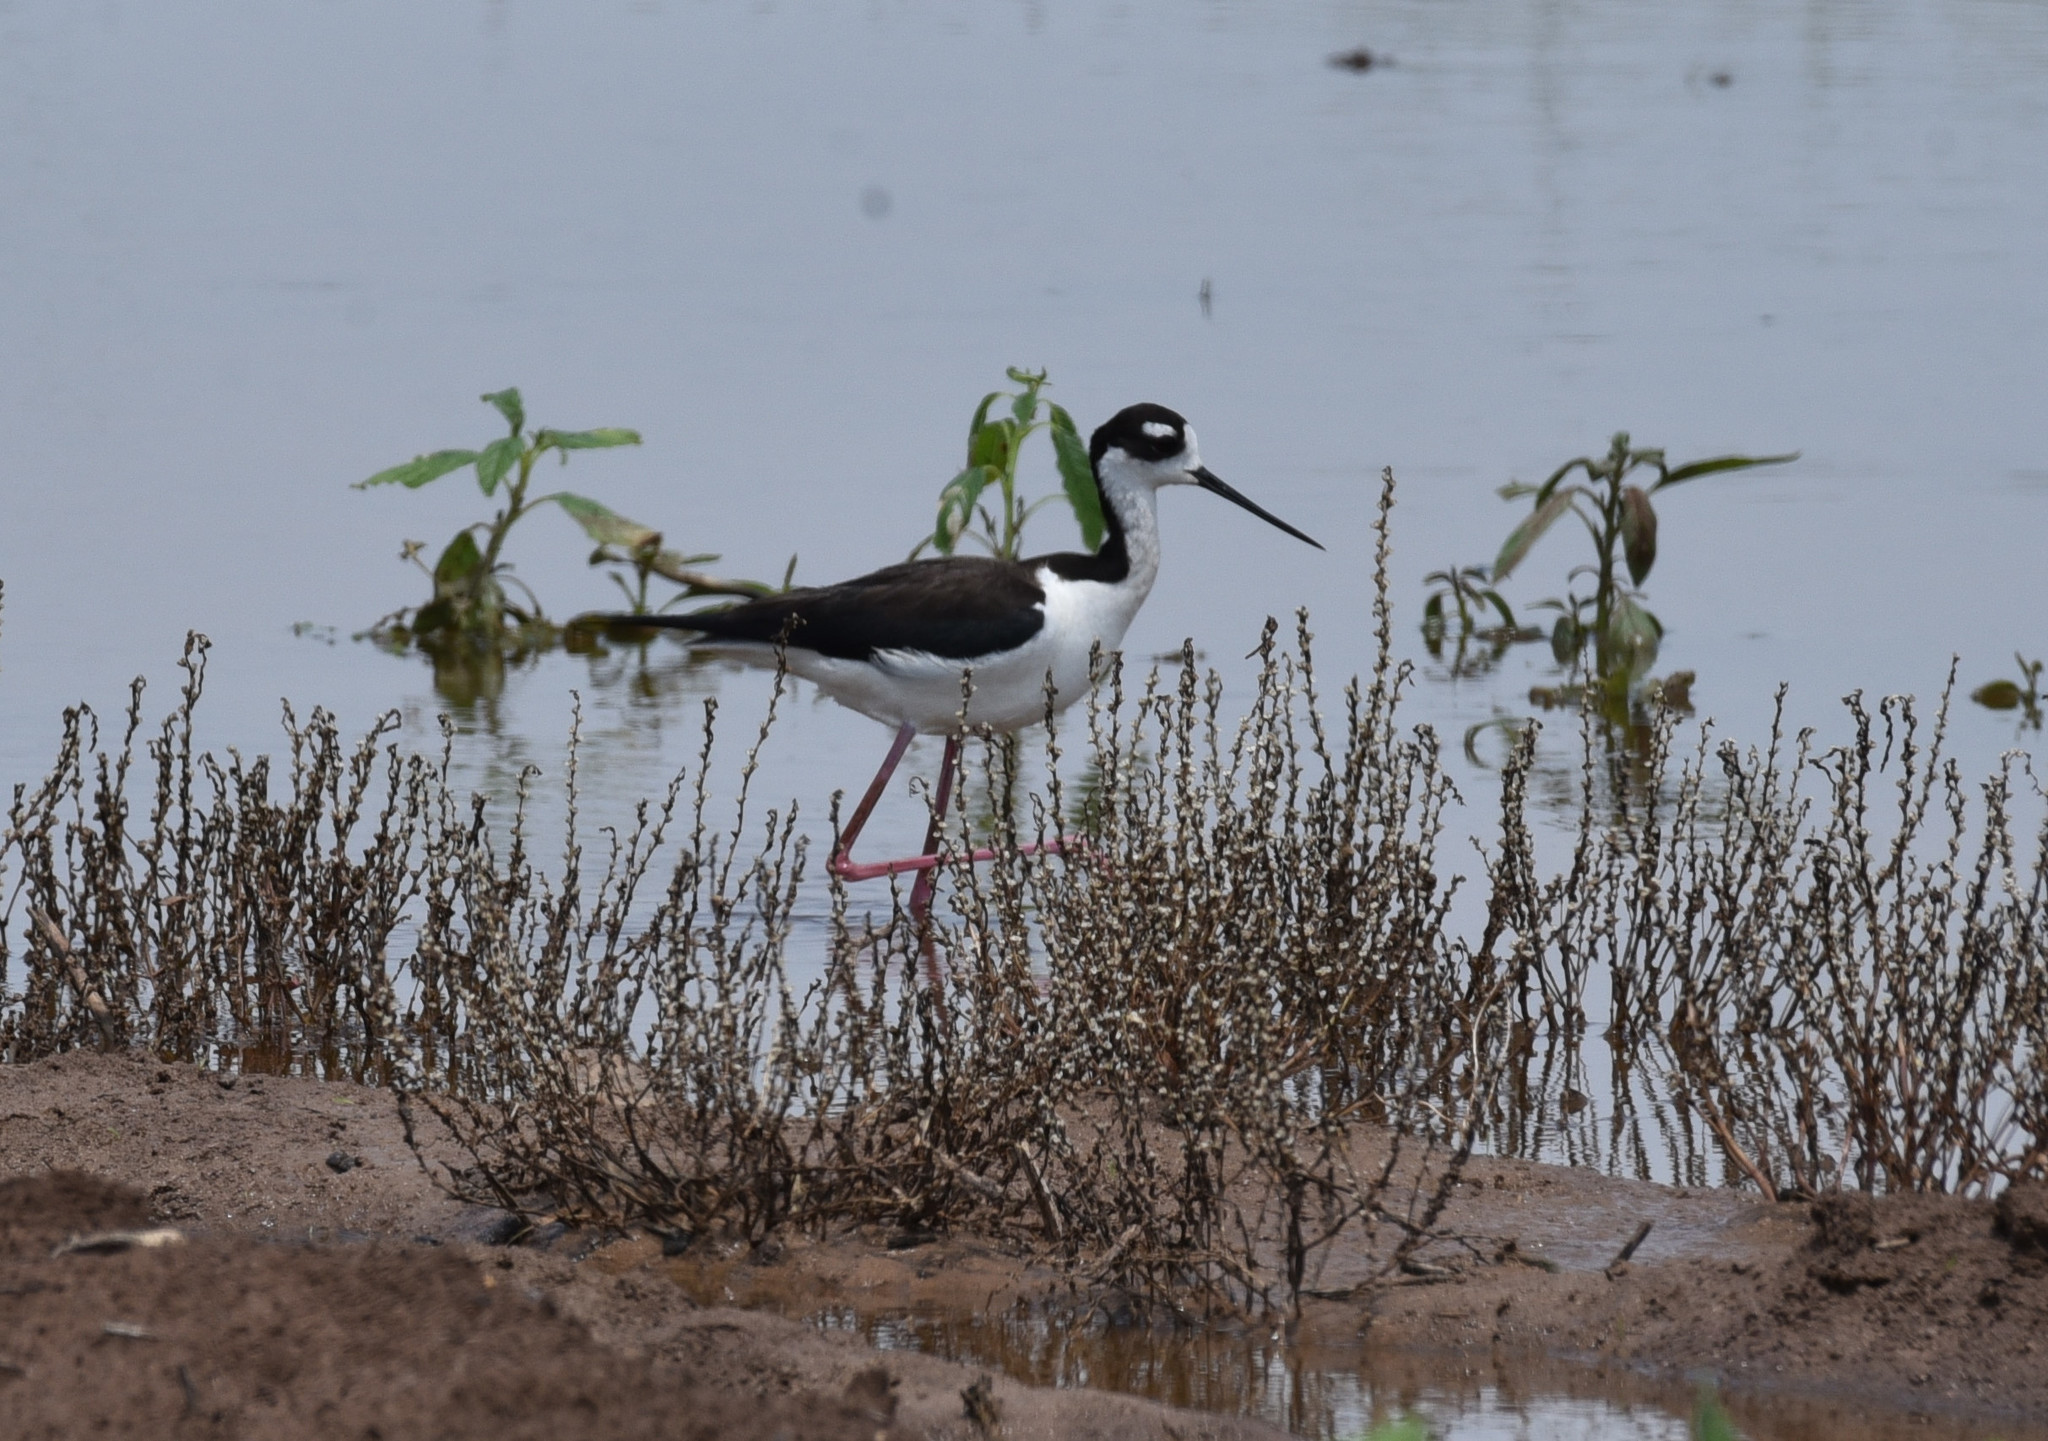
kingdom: Animalia
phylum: Chordata
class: Aves
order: Charadriiformes
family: Recurvirostridae
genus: Himantopus
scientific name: Himantopus mexicanus
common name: Black-necked stilt
